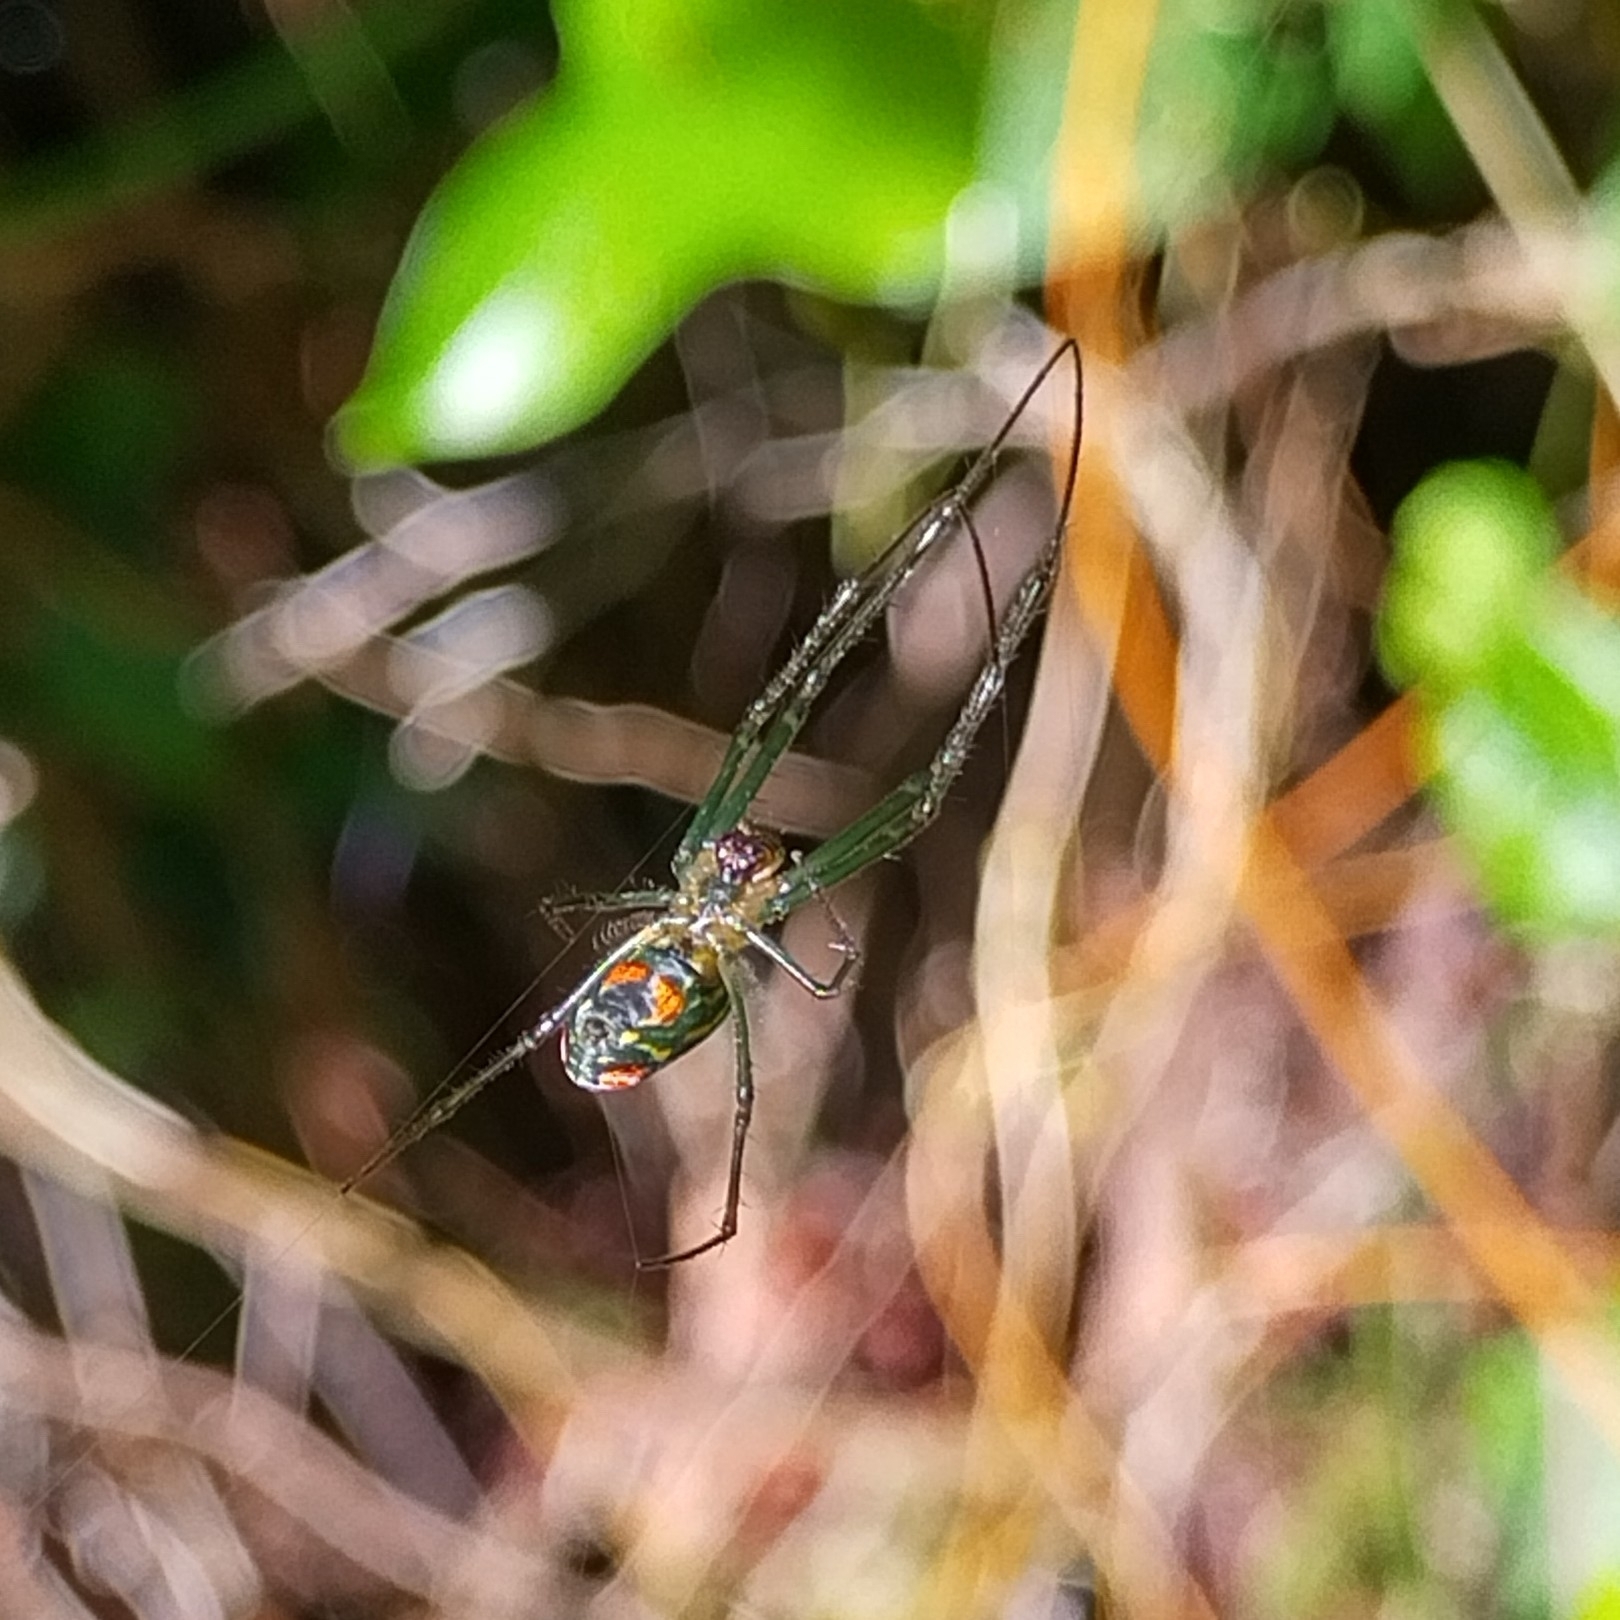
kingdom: Animalia
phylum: Arthropoda
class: Arachnida
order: Araneae
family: Tetragnathidae
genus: Leucauge
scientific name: Leucauge argyrobapta
